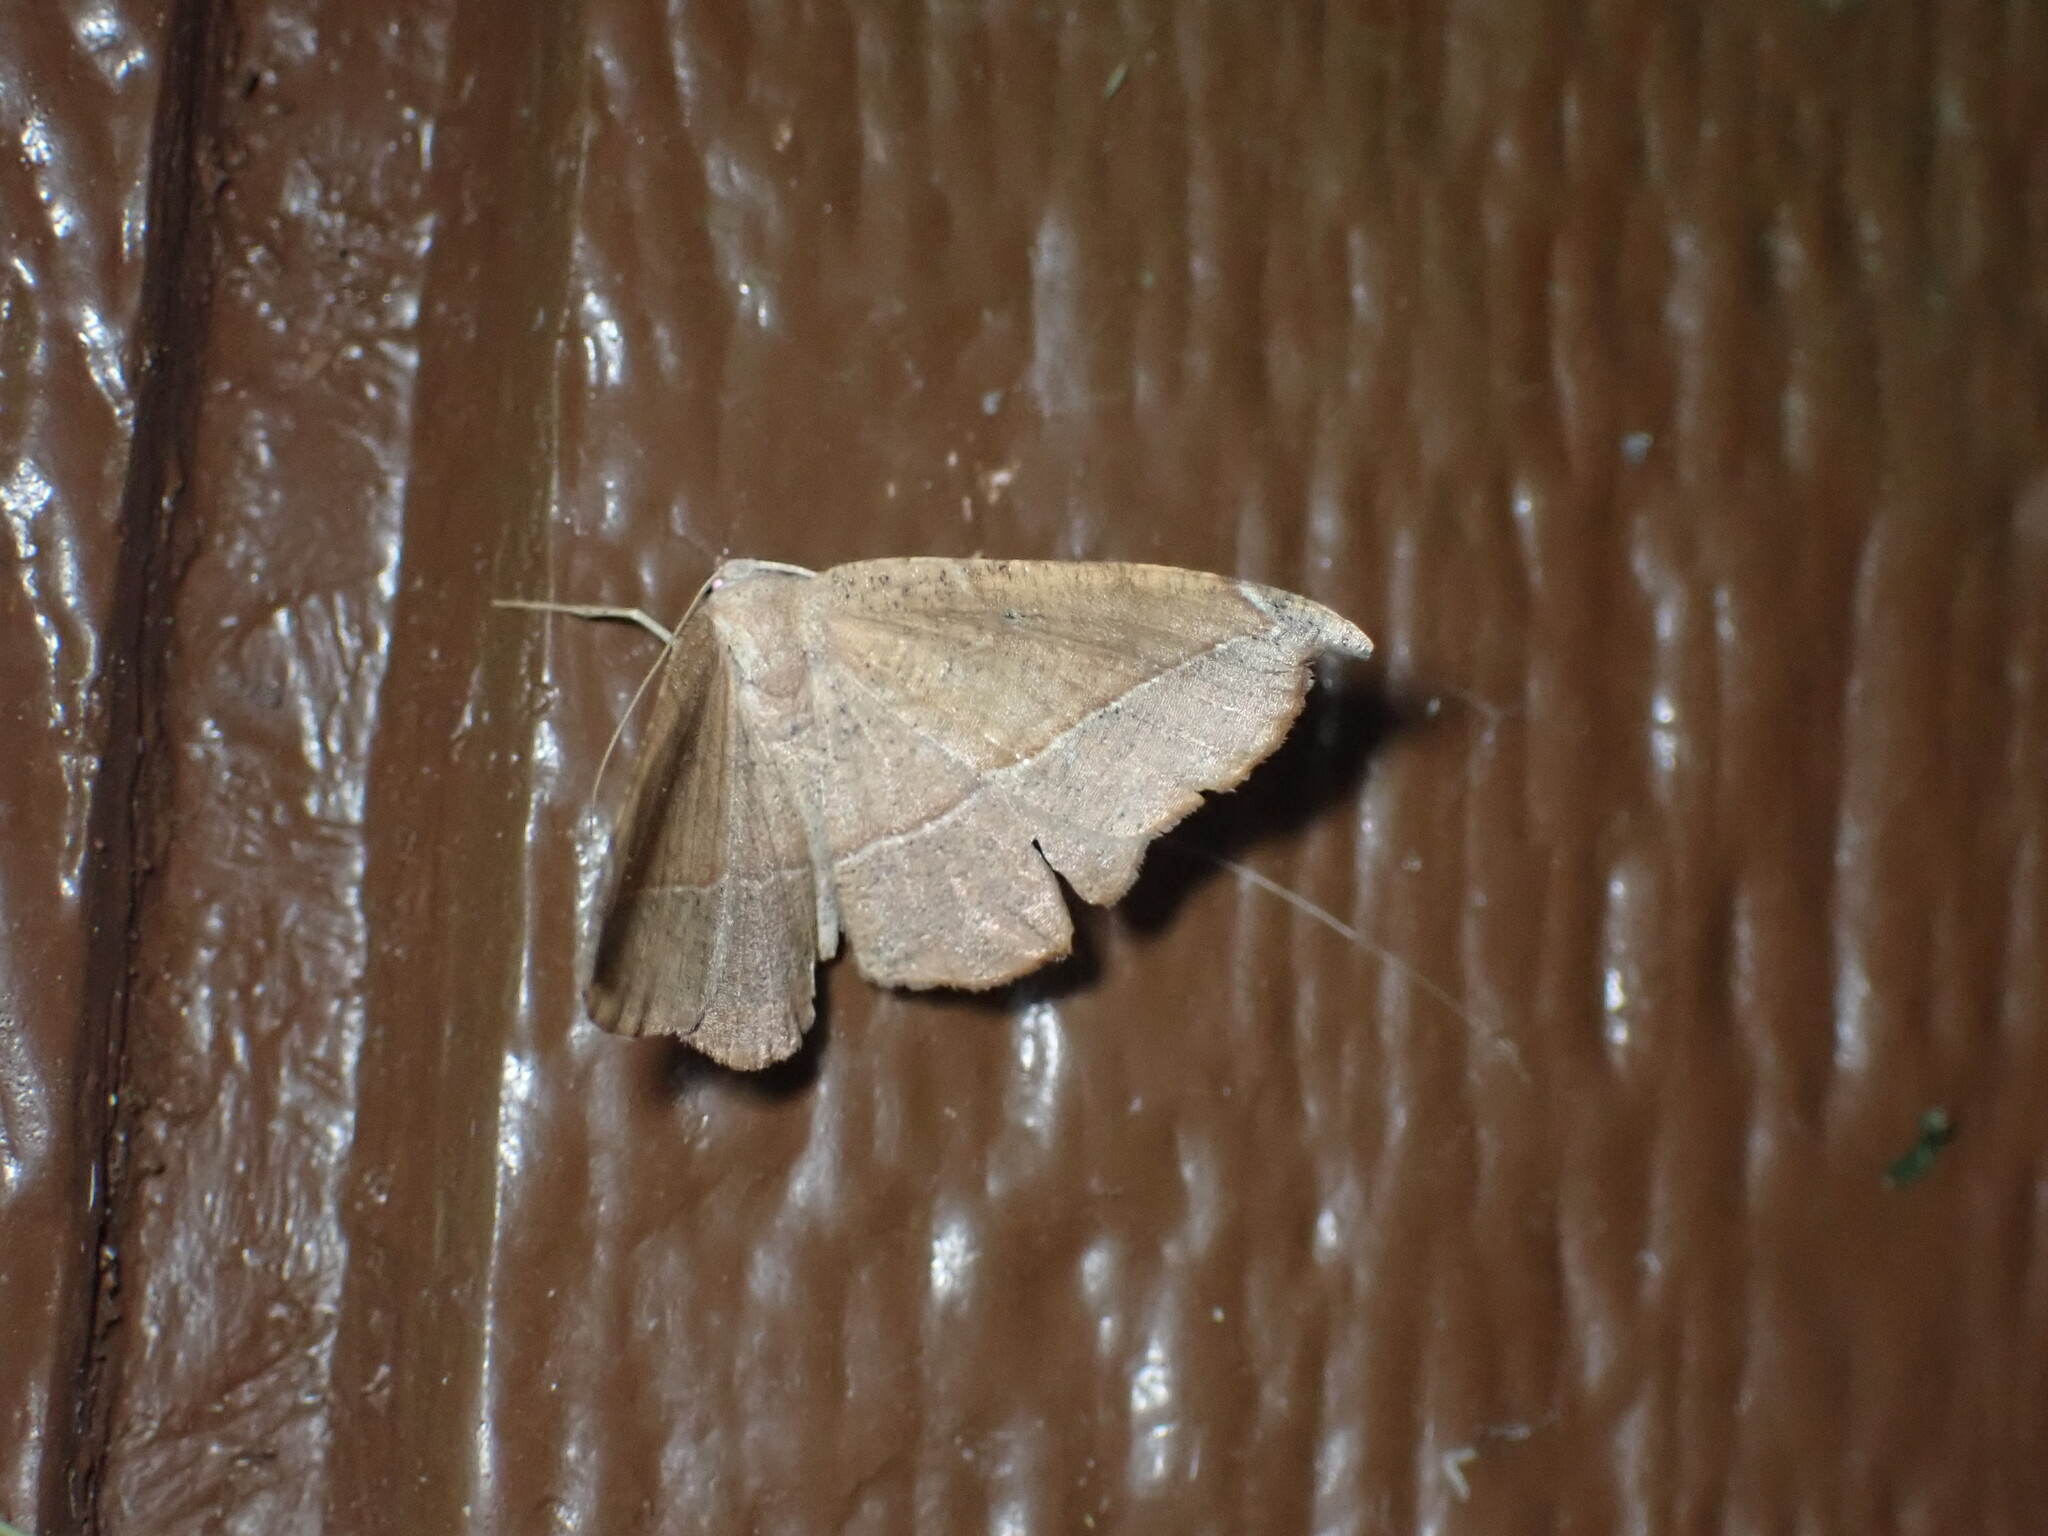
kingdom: Animalia
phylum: Arthropoda
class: Insecta
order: Lepidoptera
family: Geometridae
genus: Patalene
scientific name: Patalene olyzonaria
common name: Juniper geometer moth
